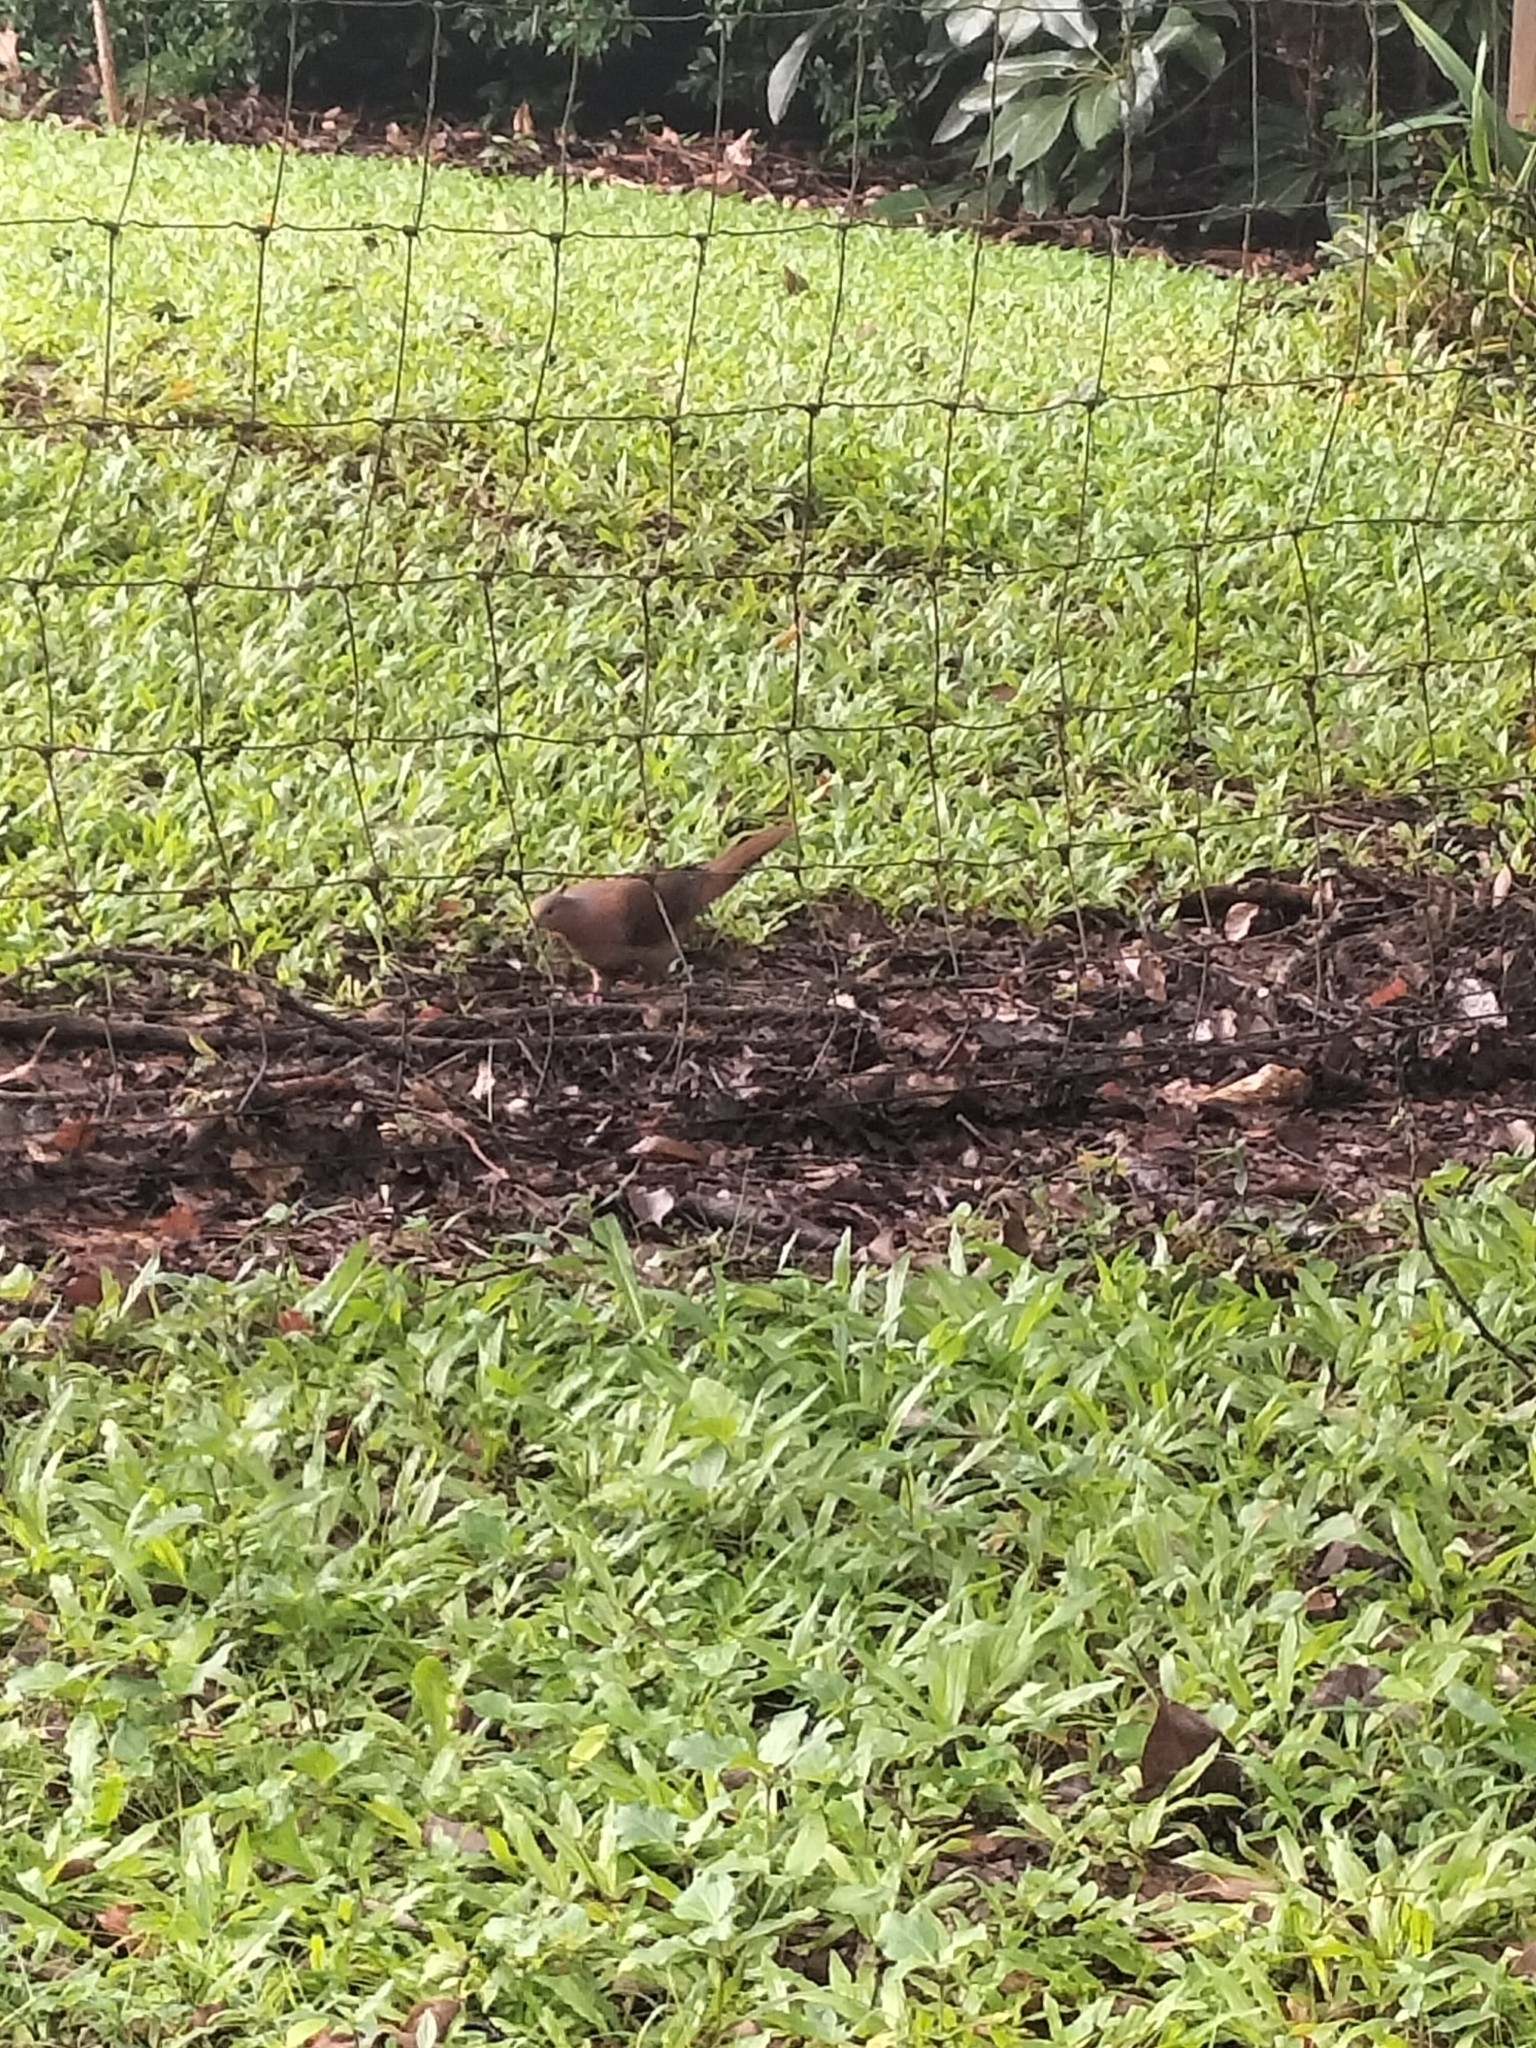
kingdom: Animalia
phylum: Chordata
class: Aves
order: Columbiformes
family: Columbidae
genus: Macropygia
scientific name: Macropygia phasianella
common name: Brown cuckoo-dove
